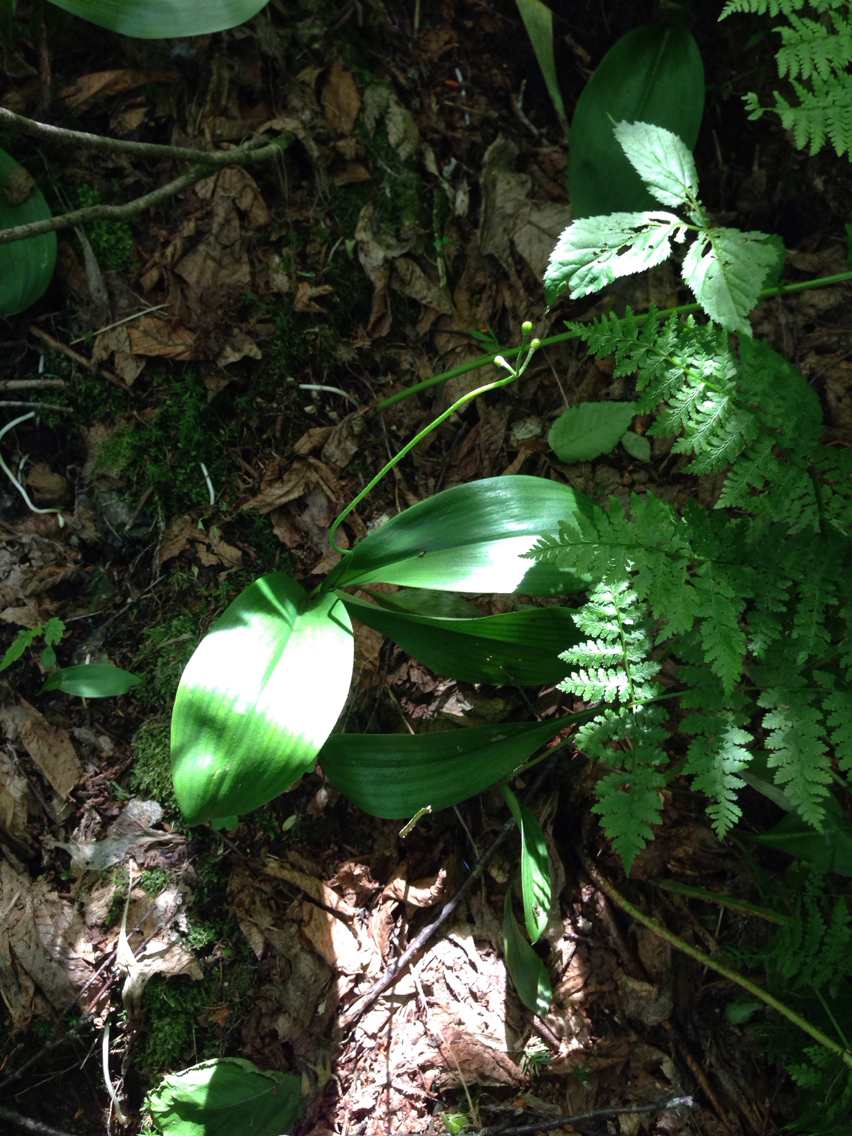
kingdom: Plantae
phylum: Tracheophyta
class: Liliopsida
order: Liliales
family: Liliaceae
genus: Clintonia
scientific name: Clintonia borealis
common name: Yellow clintonia
